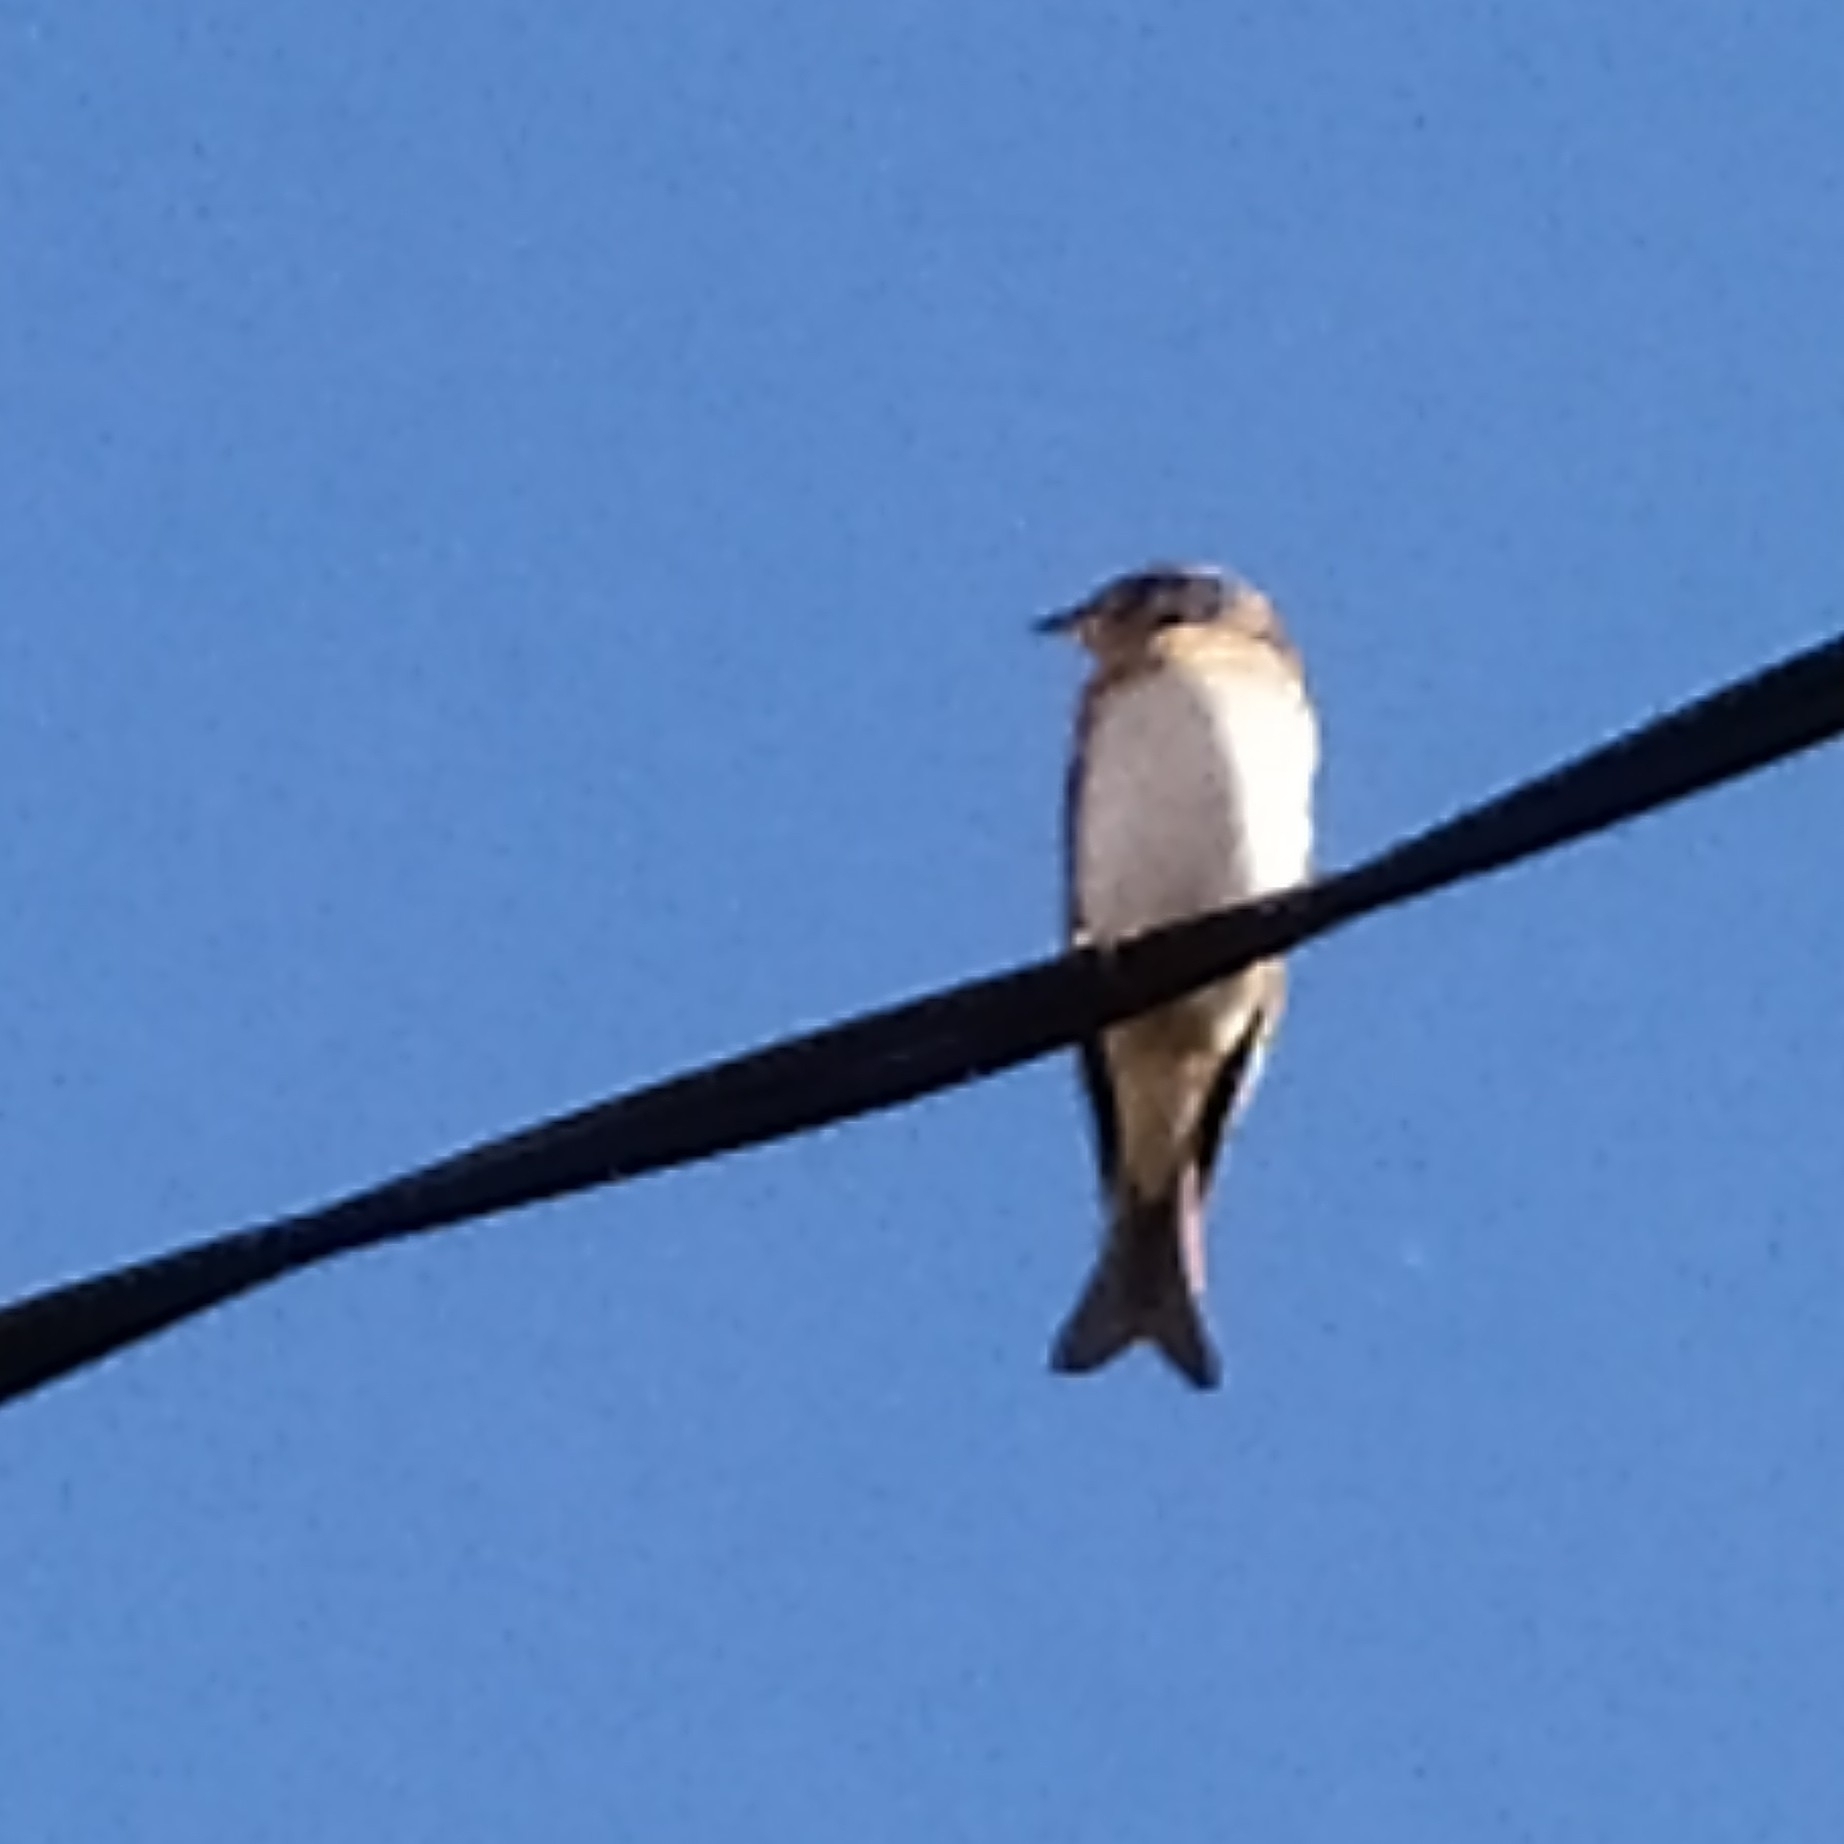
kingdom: Animalia
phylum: Chordata
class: Aves
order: Passeriformes
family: Fringillidae
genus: Fringilla
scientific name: Fringilla montifringilla
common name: Brambling
